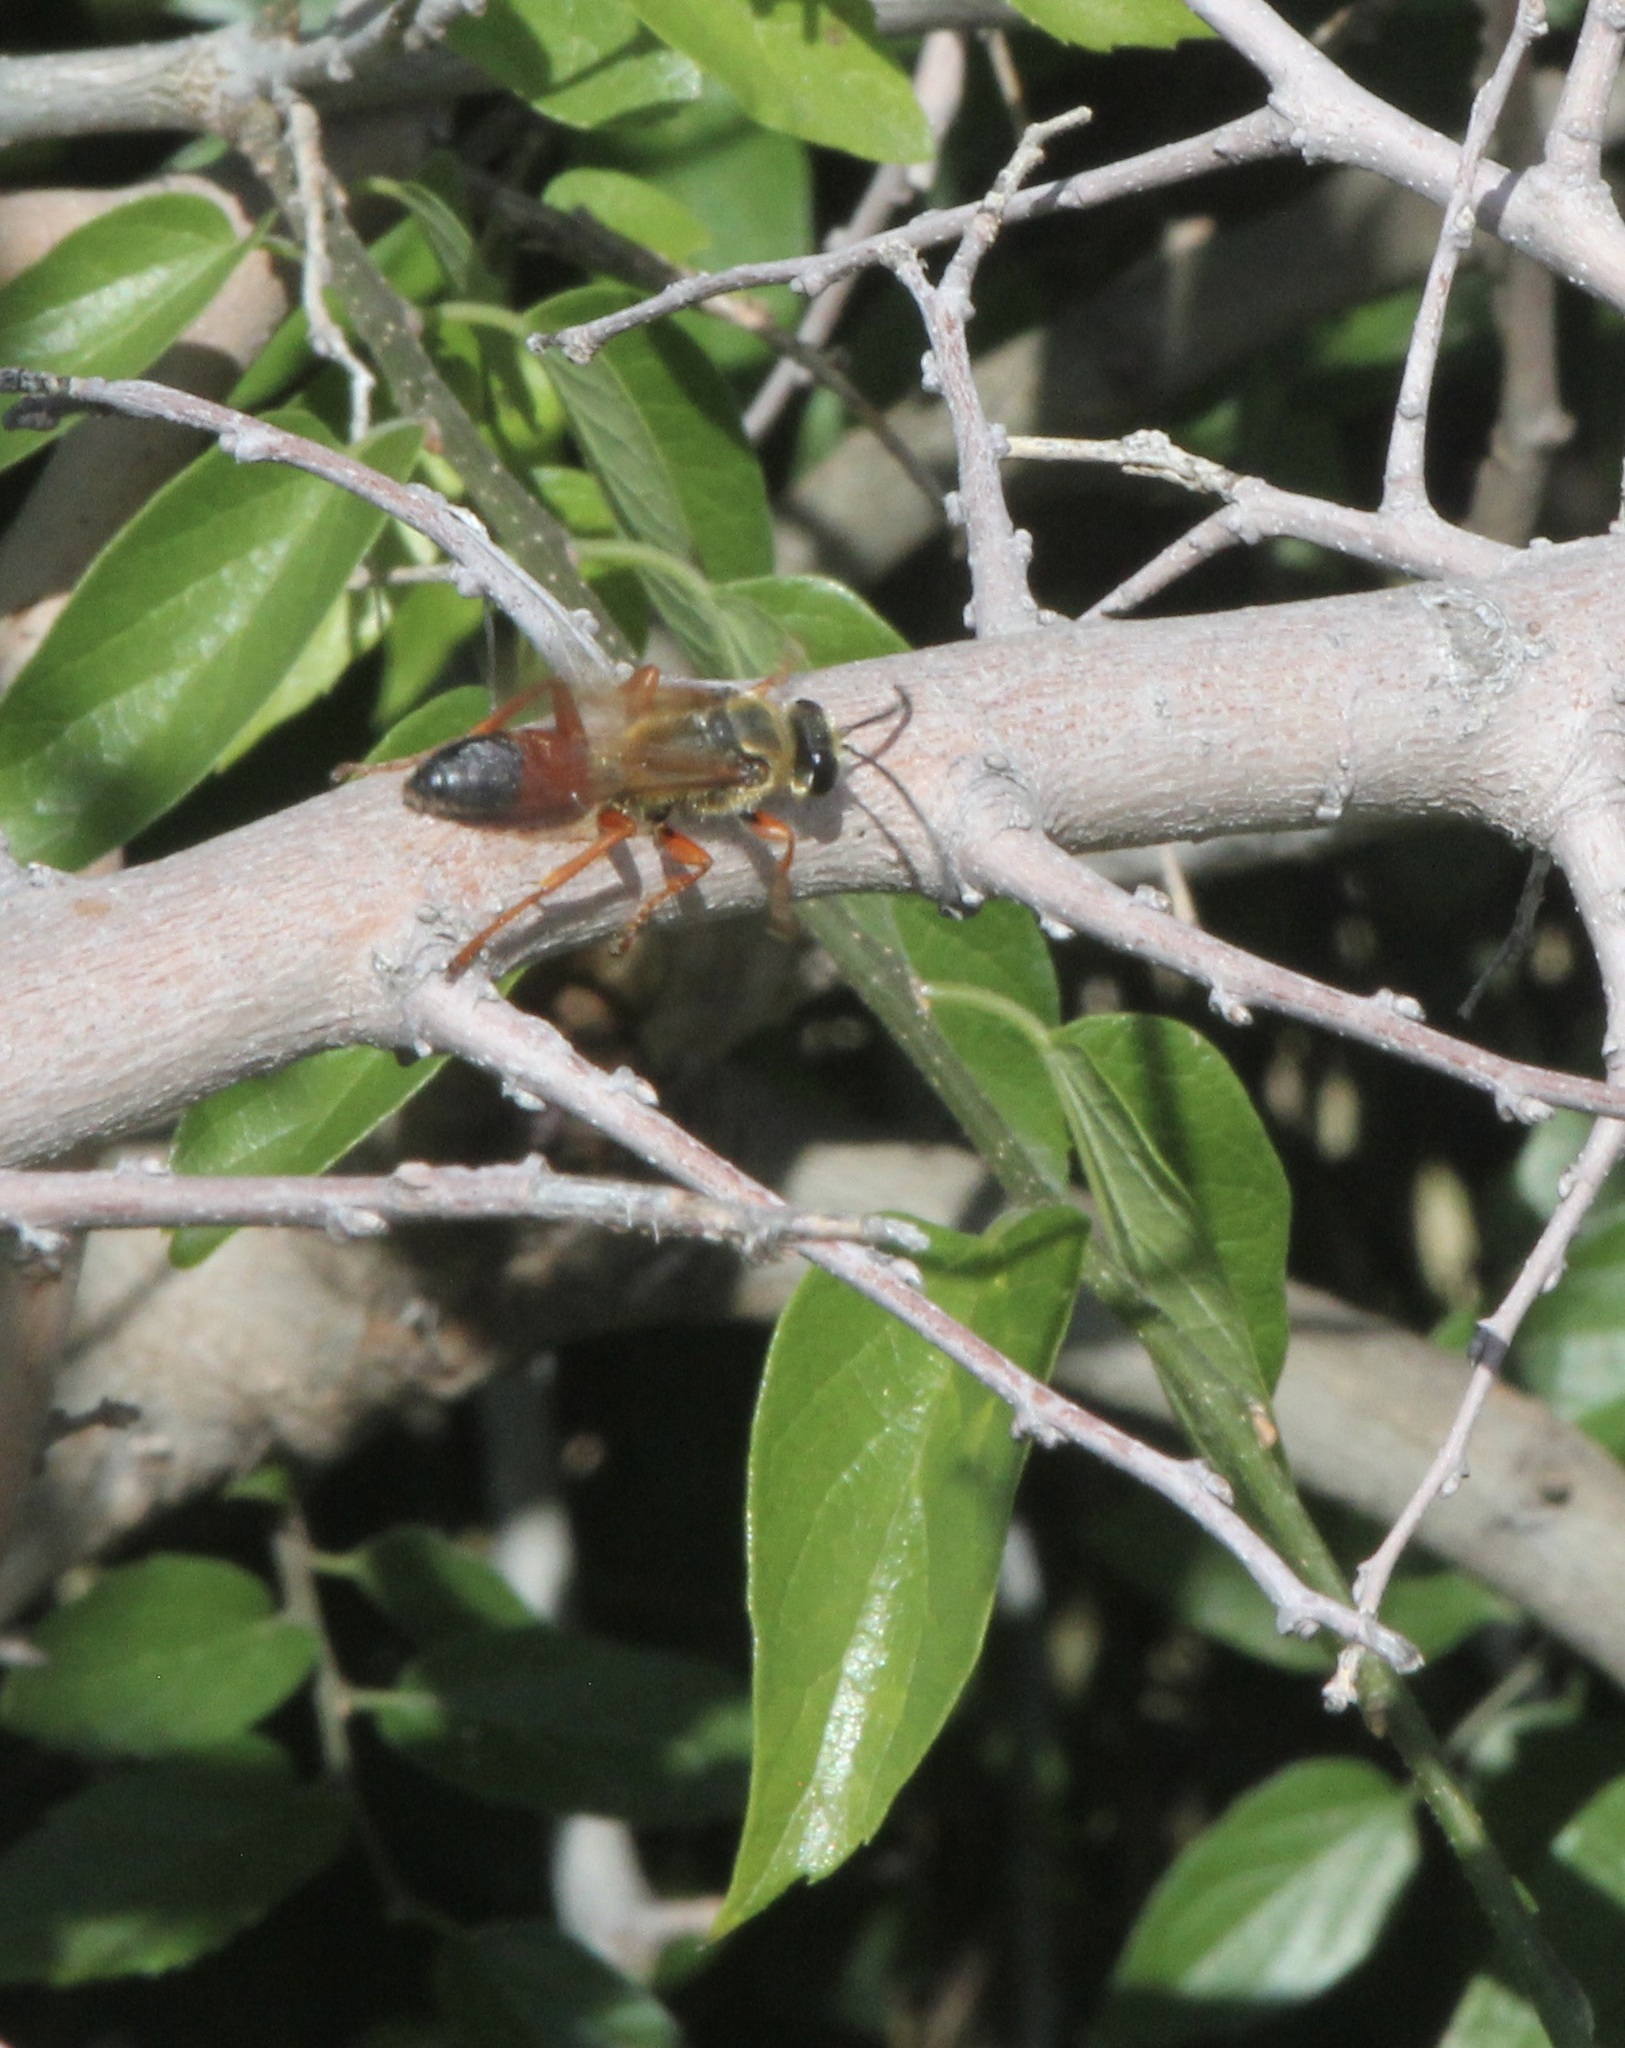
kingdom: Animalia
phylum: Arthropoda
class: Insecta
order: Hymenoptera
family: Sphecidae
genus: Sphex
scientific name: Sphex ichneumoneus
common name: Great golden digger wasp
